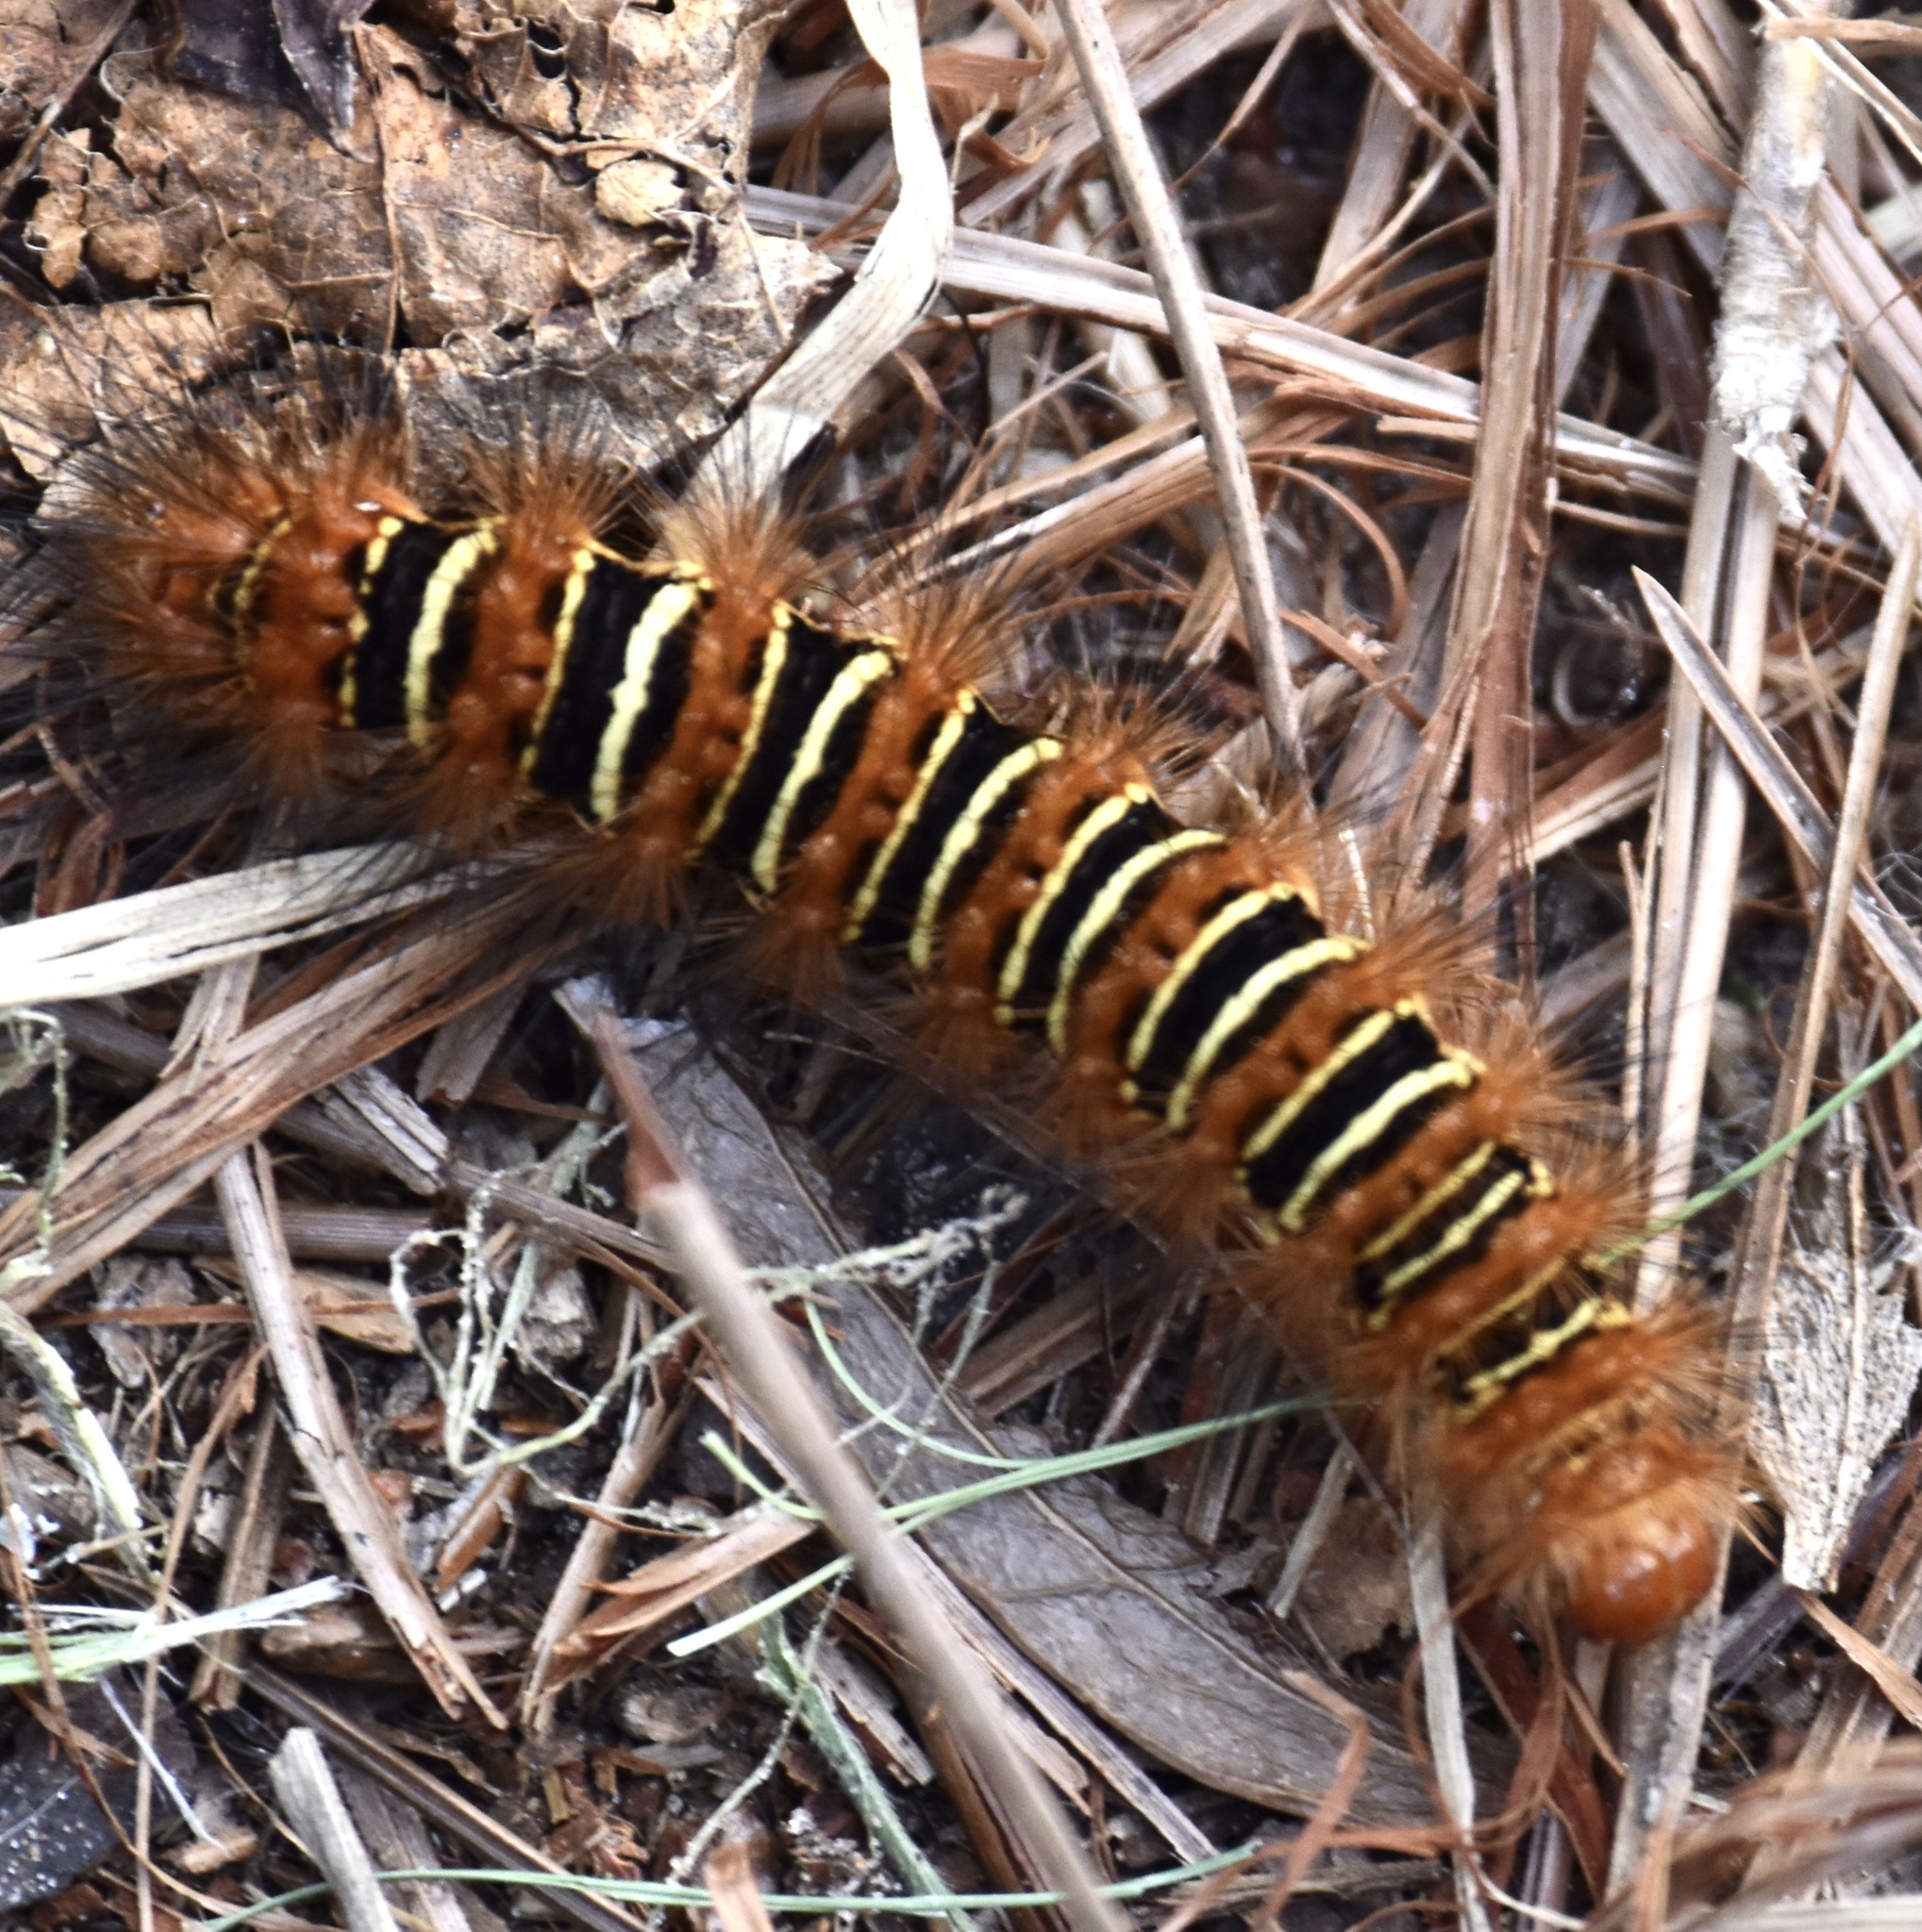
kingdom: Animalia
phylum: Arthropoda
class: Insecta
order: Lepidoptera
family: Erebidae
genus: Seirarctia
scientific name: Seirarctia echo
